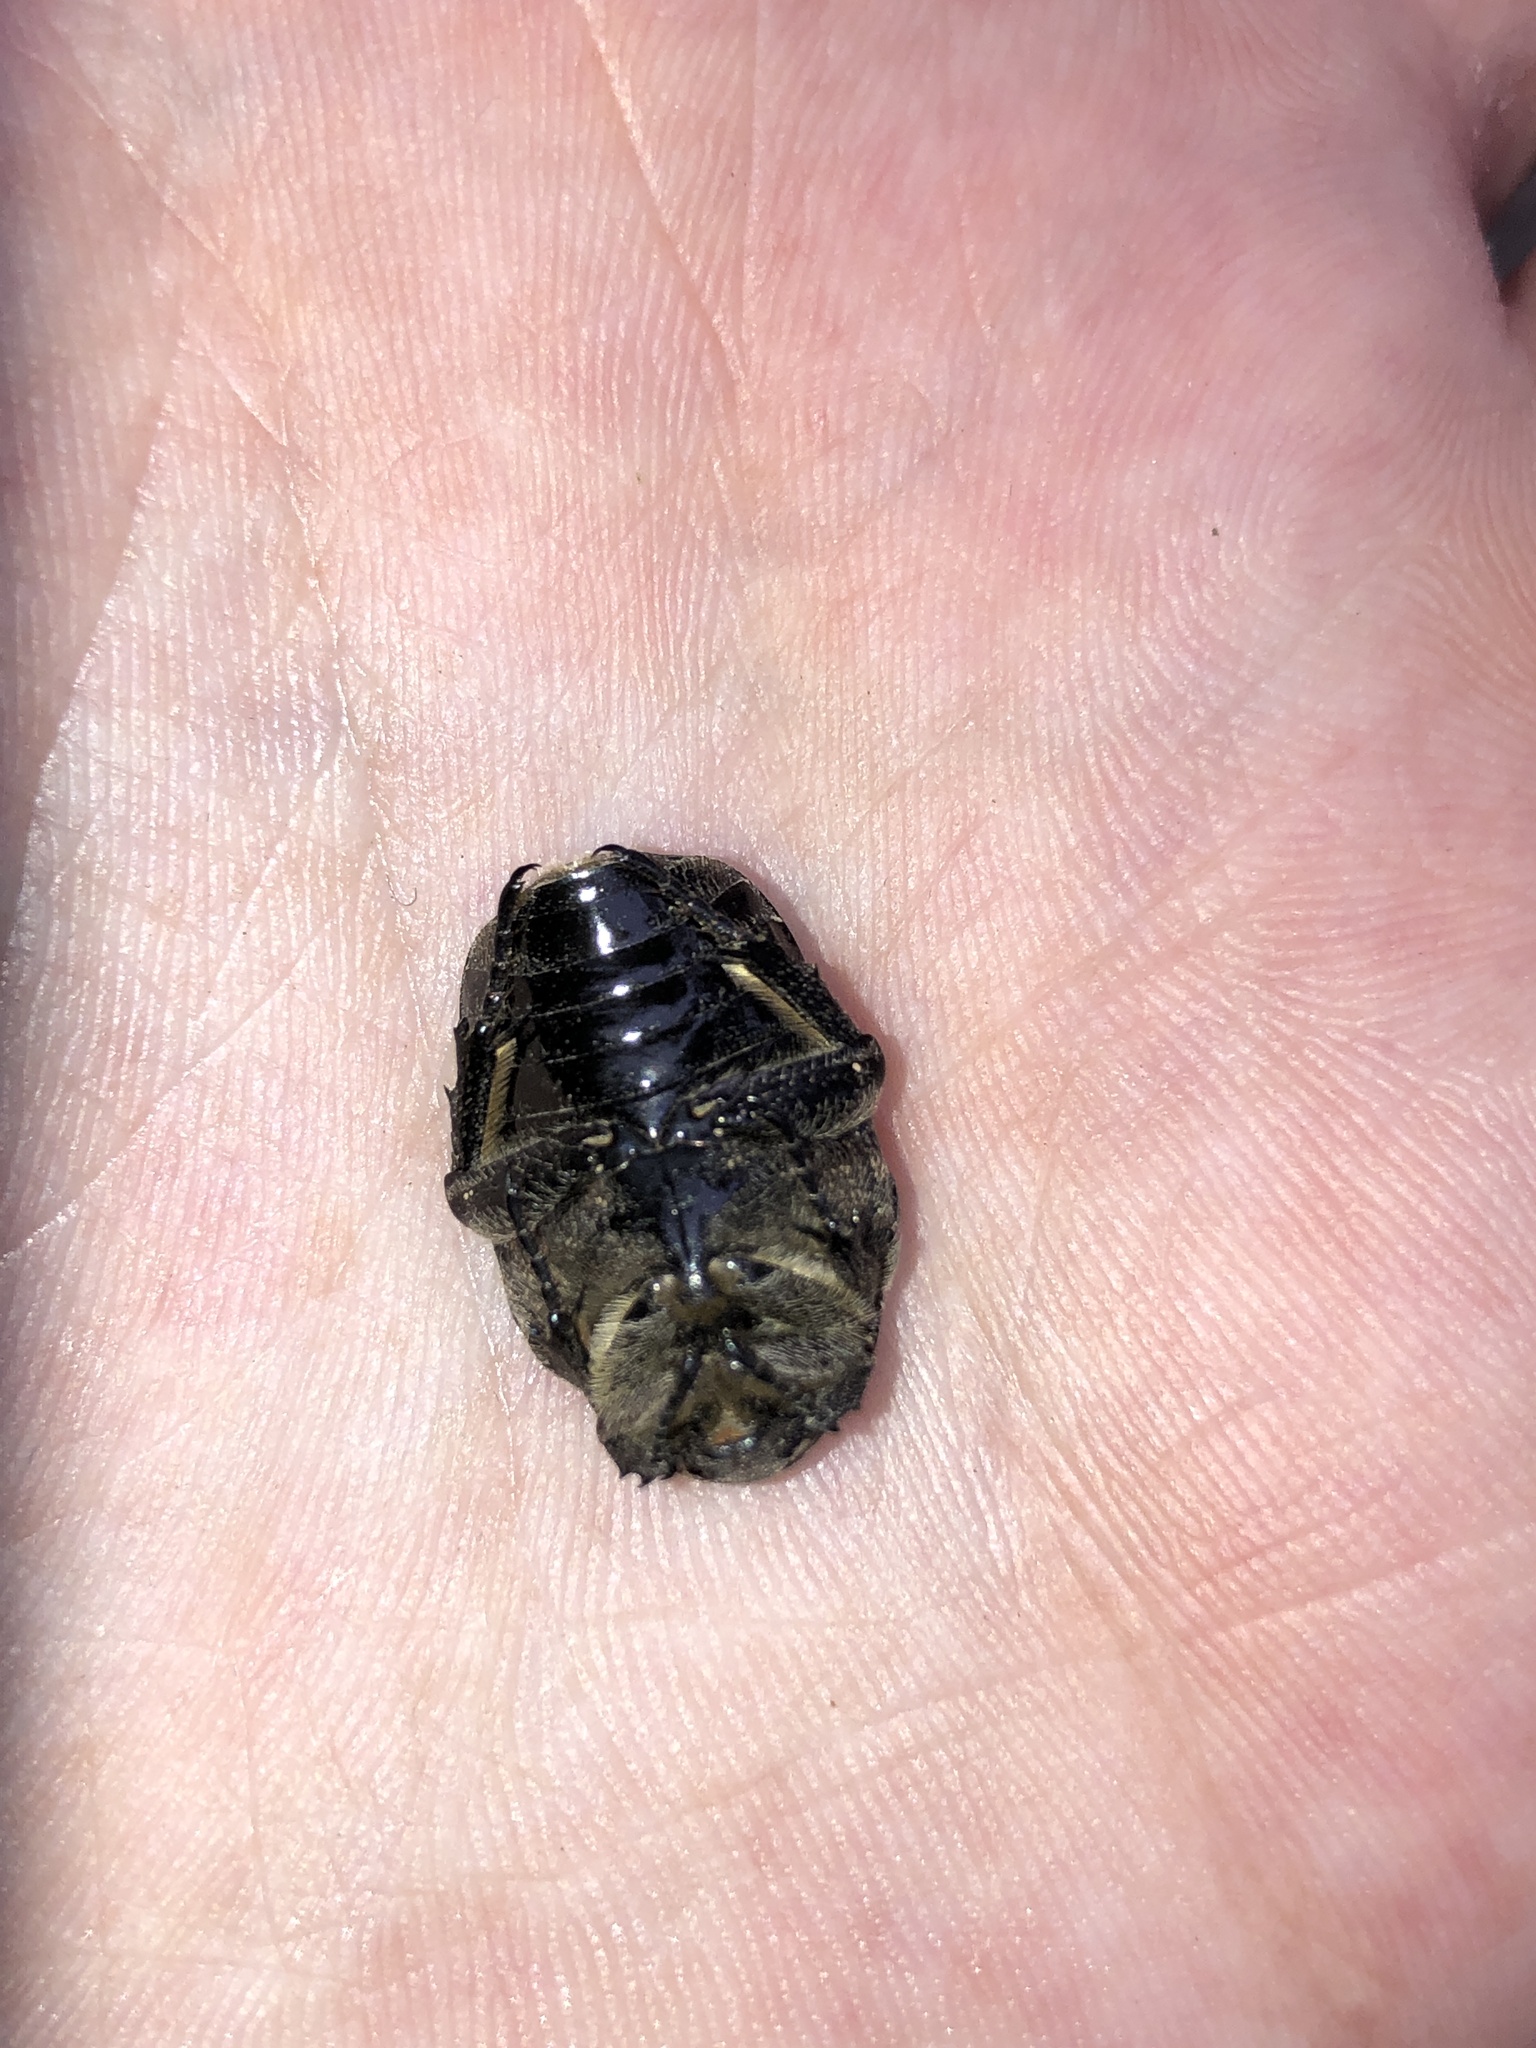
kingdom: Animalia
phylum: Arthropoda
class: Insecta
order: Coleoptera
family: Scarabaeidae
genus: Protaetia
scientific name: Protaetia morio
